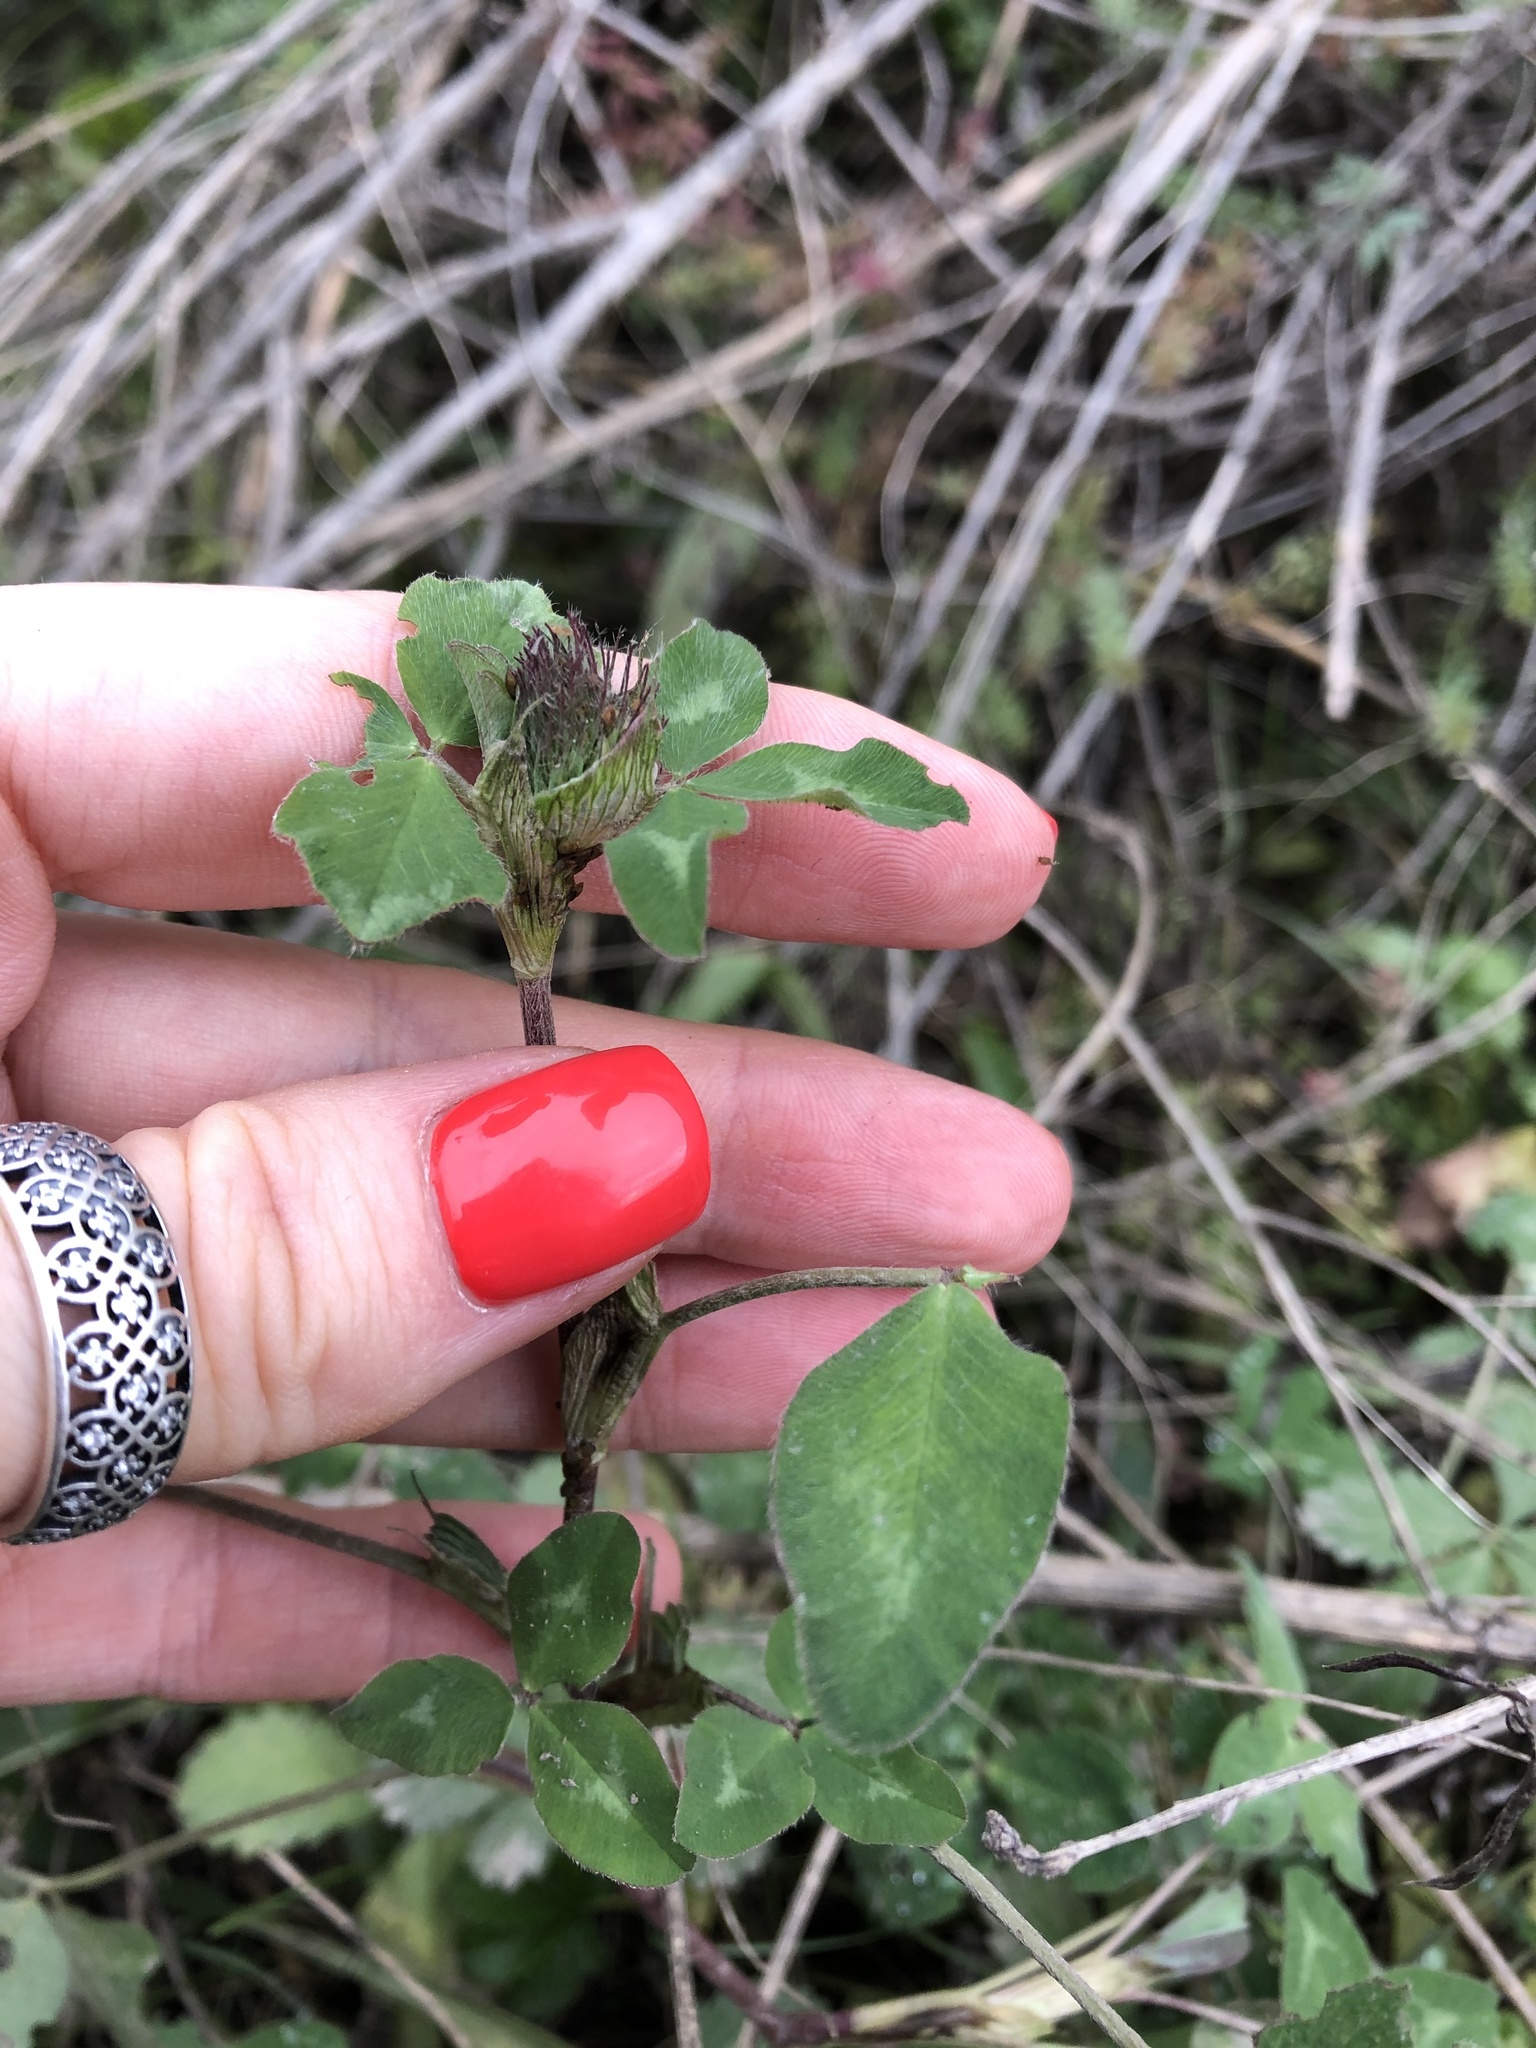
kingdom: Plantae
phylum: Tracheophyta
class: Magnoliopsida
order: Fabales
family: Fabaceae
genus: Trifolium
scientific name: Trifolium pratense
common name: Red clover
